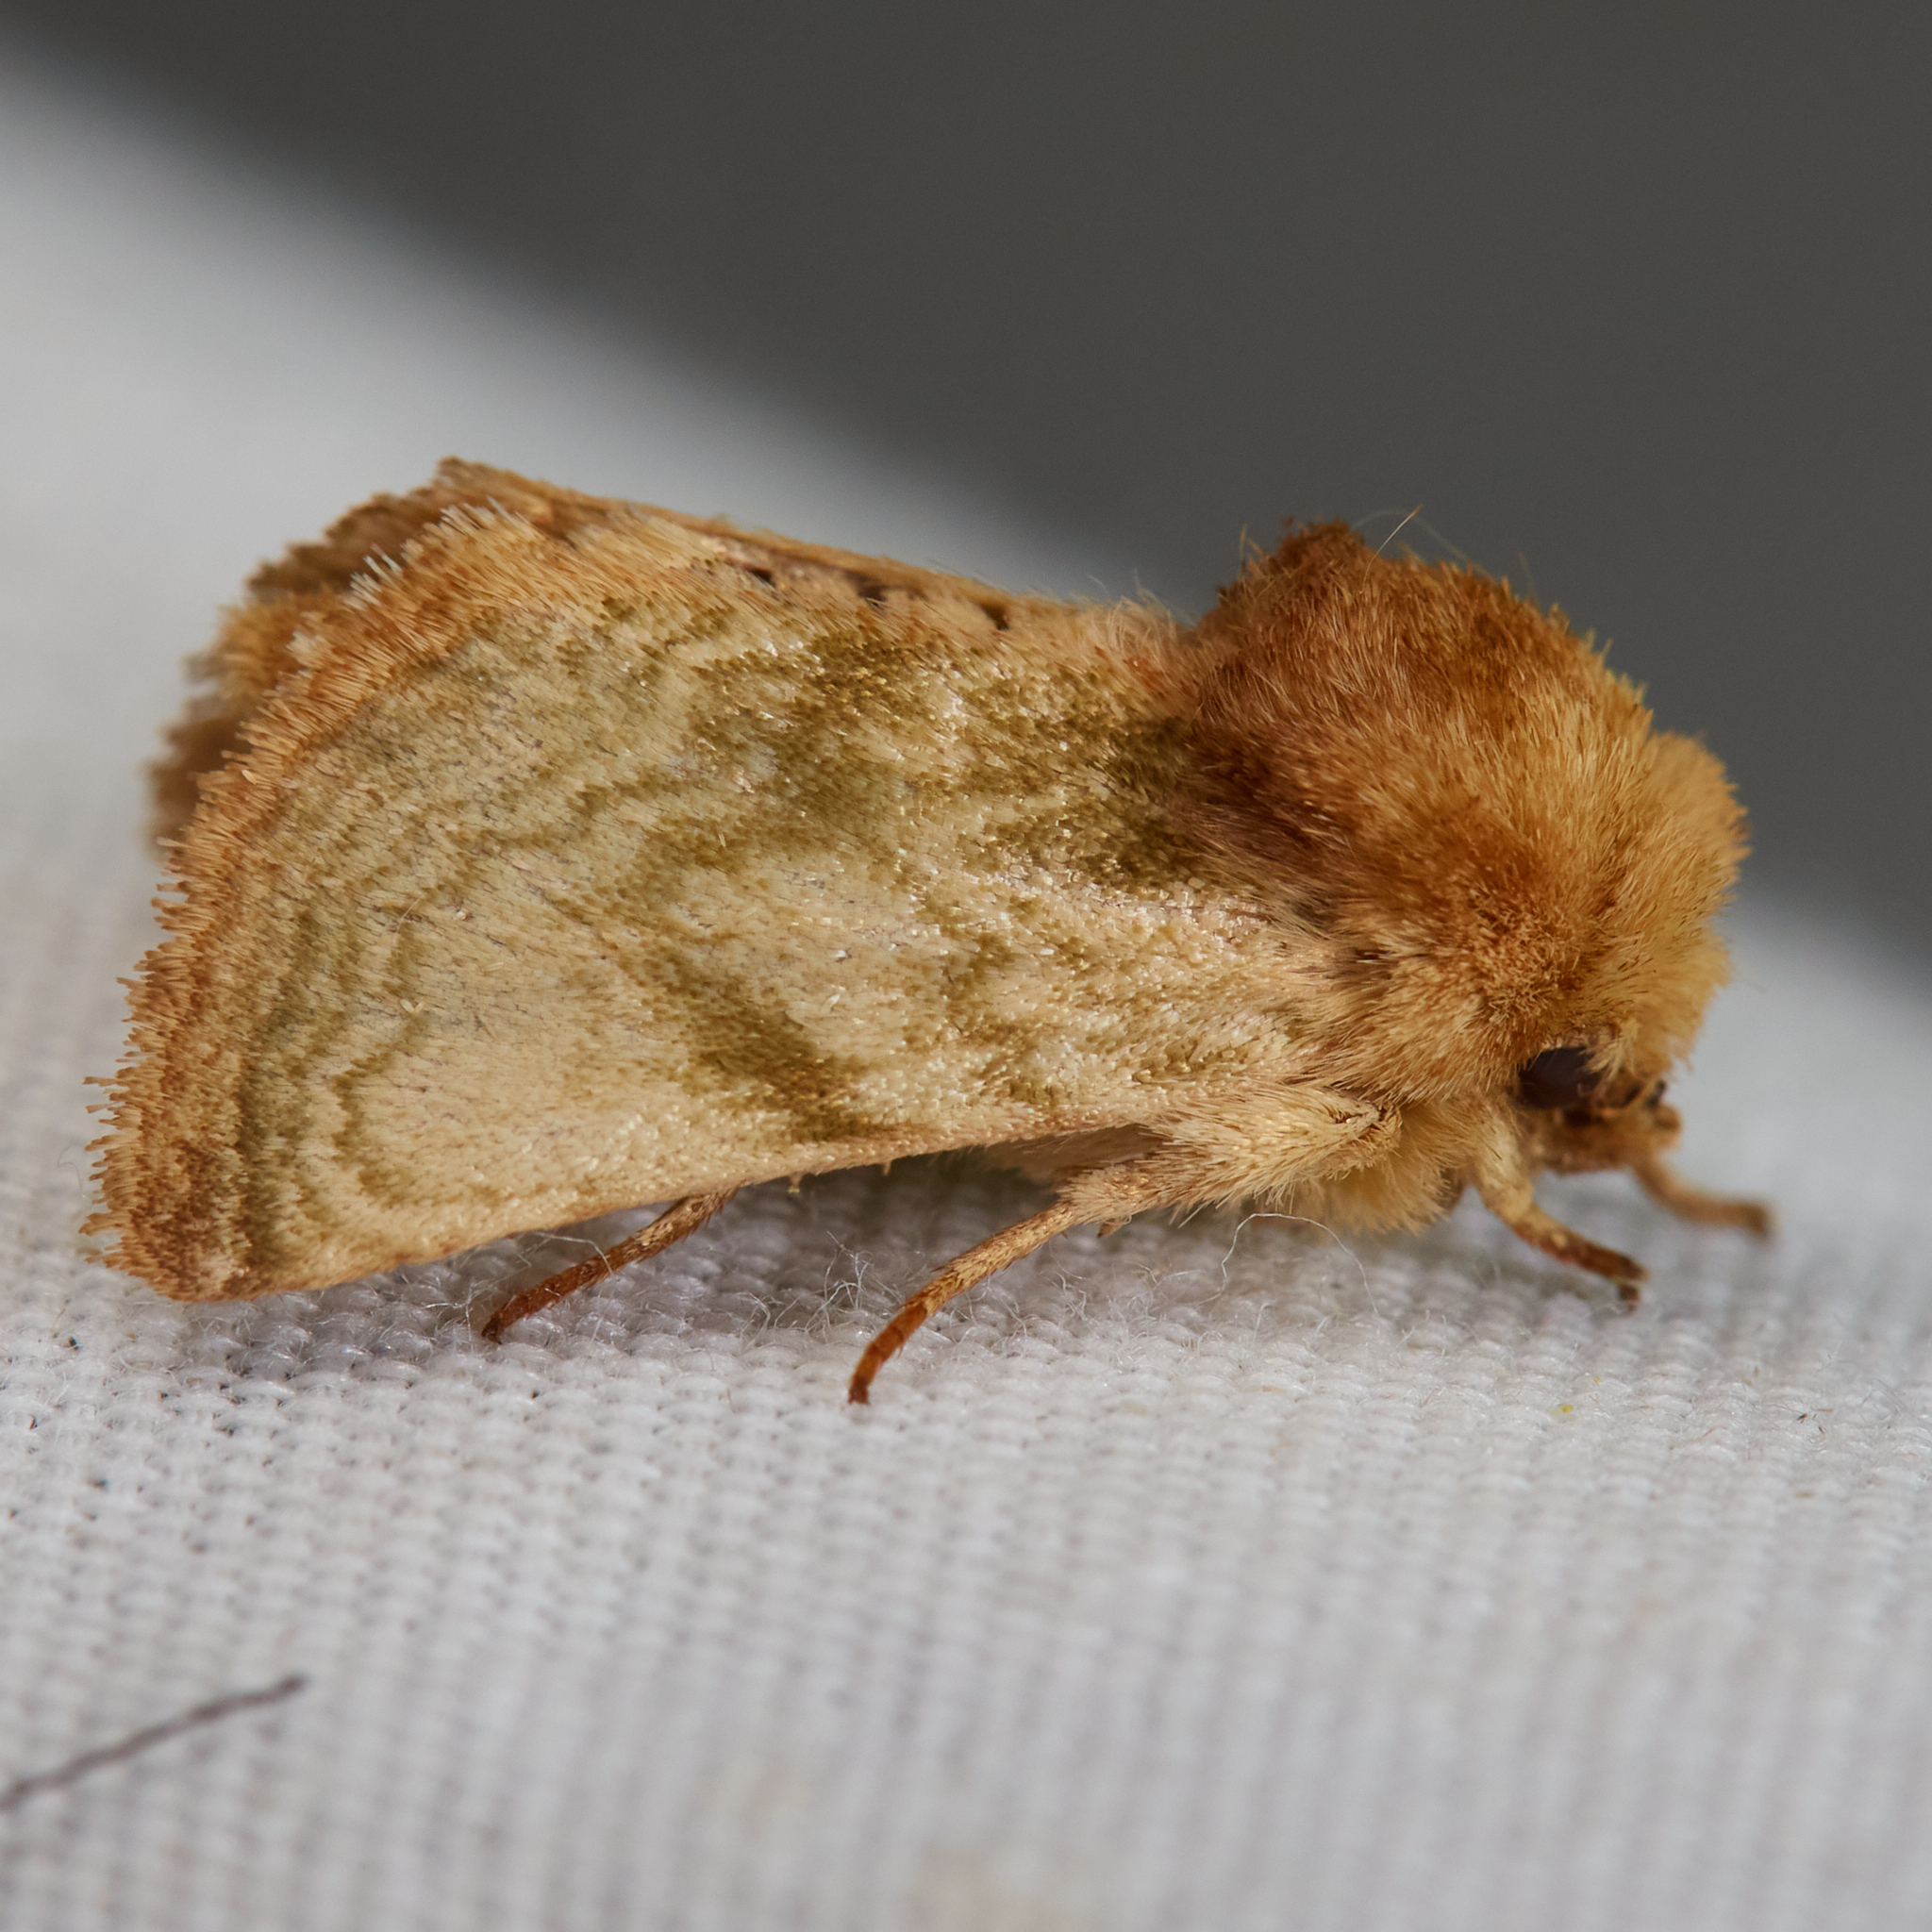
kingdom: Animalia
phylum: Arthropoda
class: Insecta
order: Lepidoptera
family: Noctuidae
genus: Nocloa
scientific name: Nocloa rivulosa
